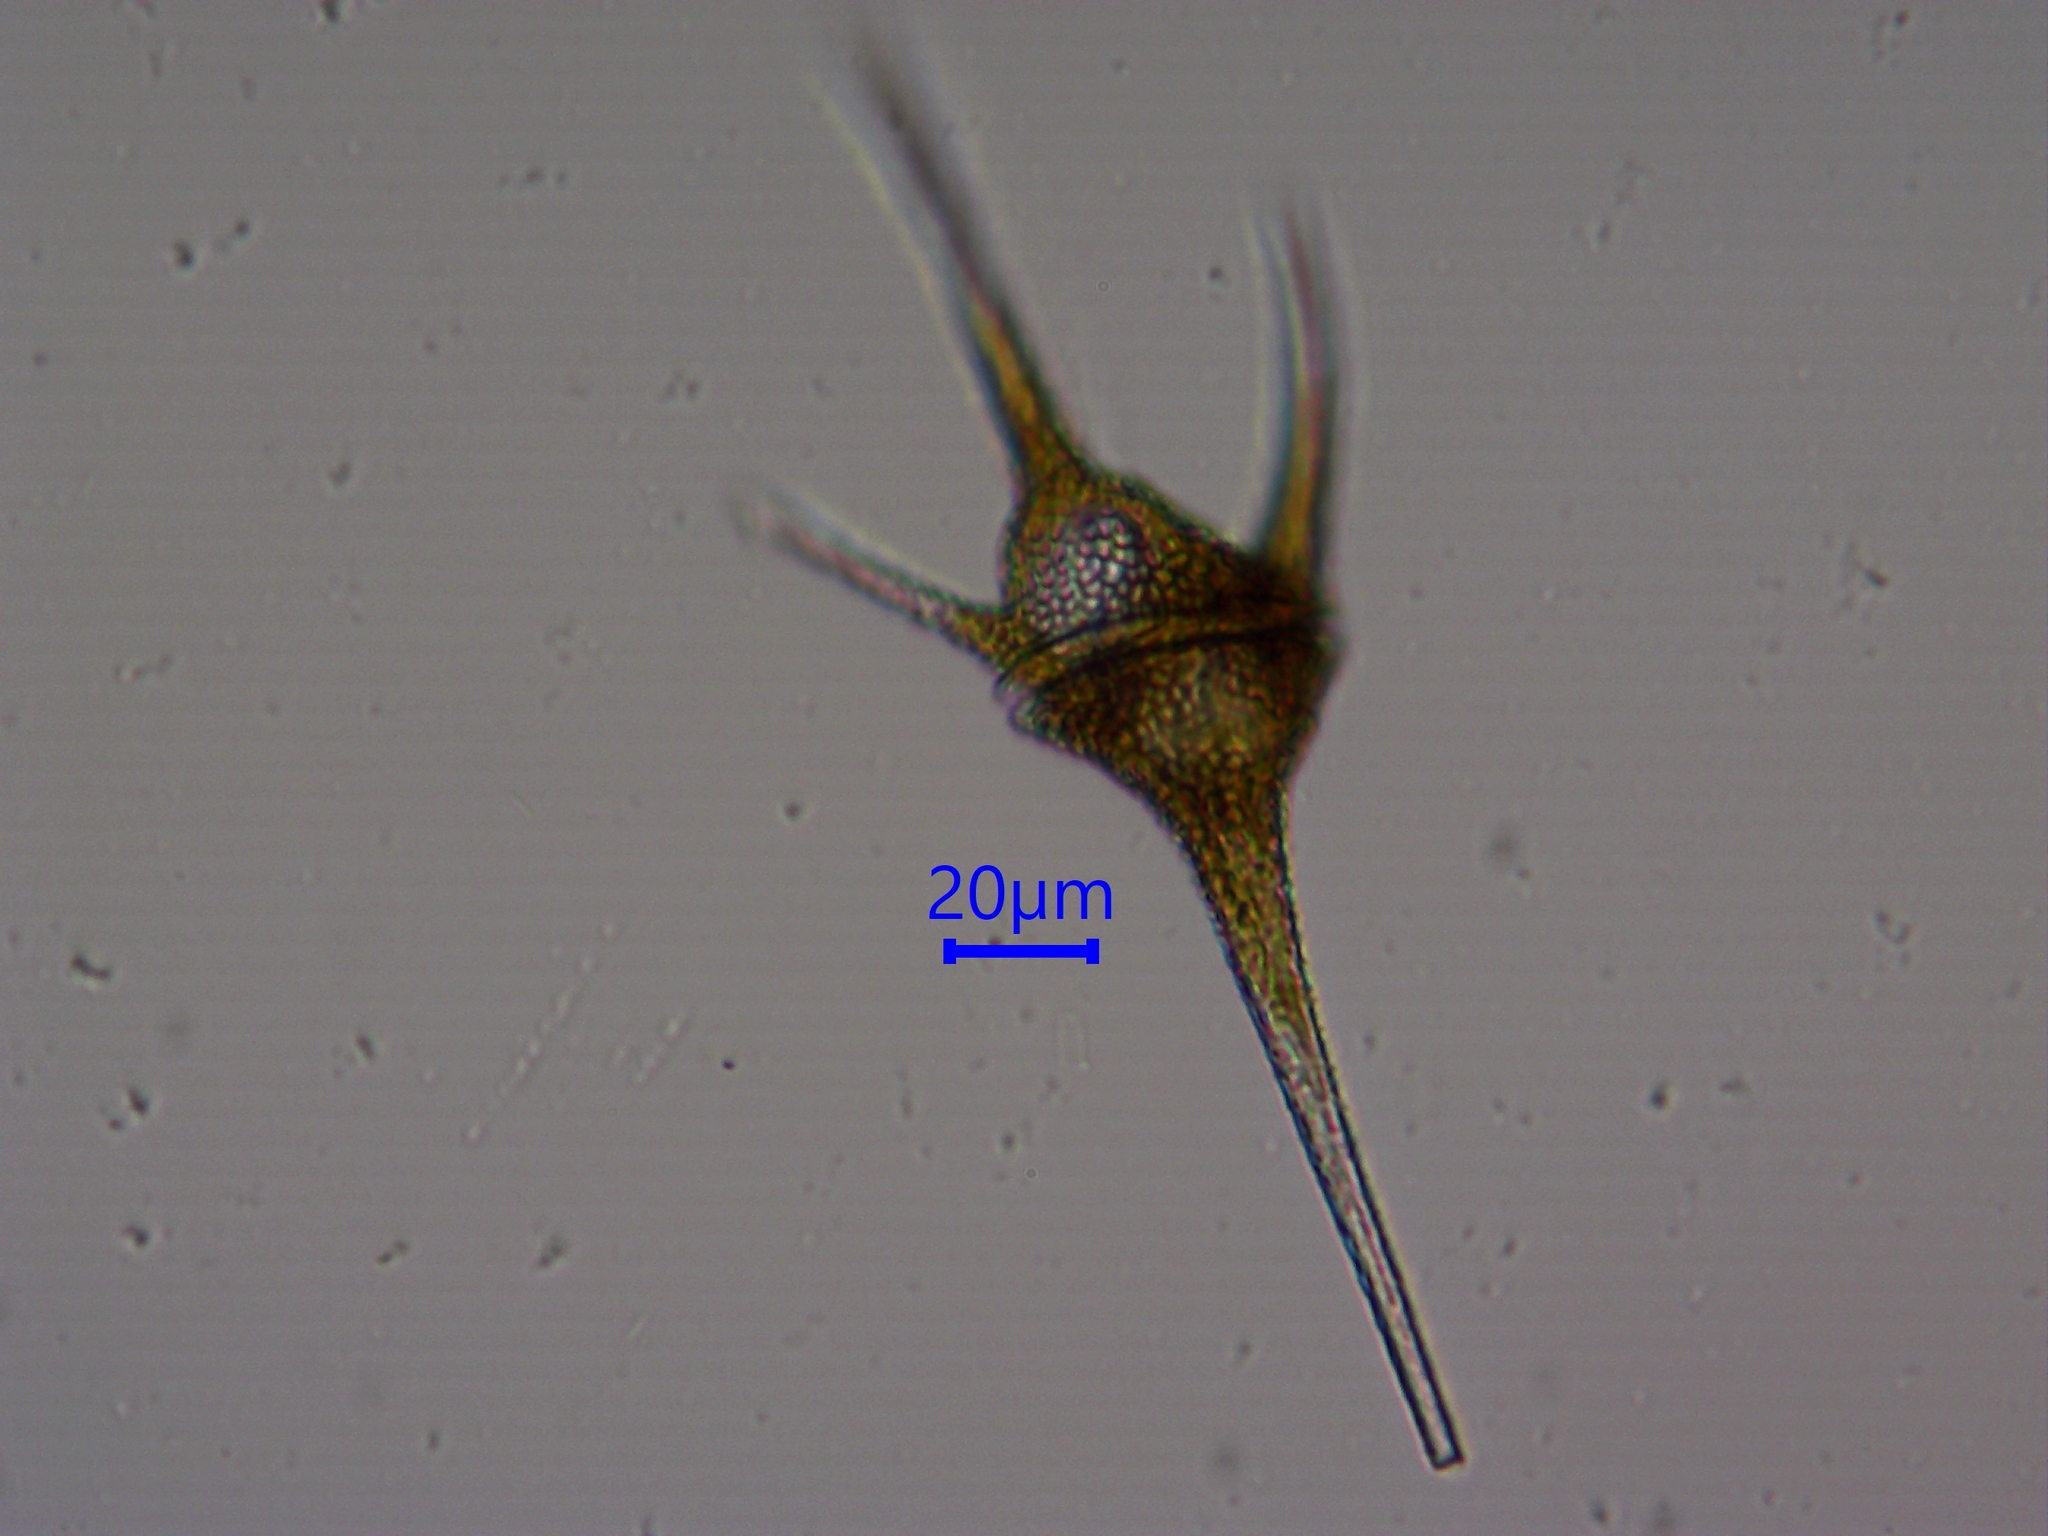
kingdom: Chromista
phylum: Myzozoa
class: Dinophyceae
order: Gonyaulacales
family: Ceratiaceae
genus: Ceratium
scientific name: Ceratium hirundinella
